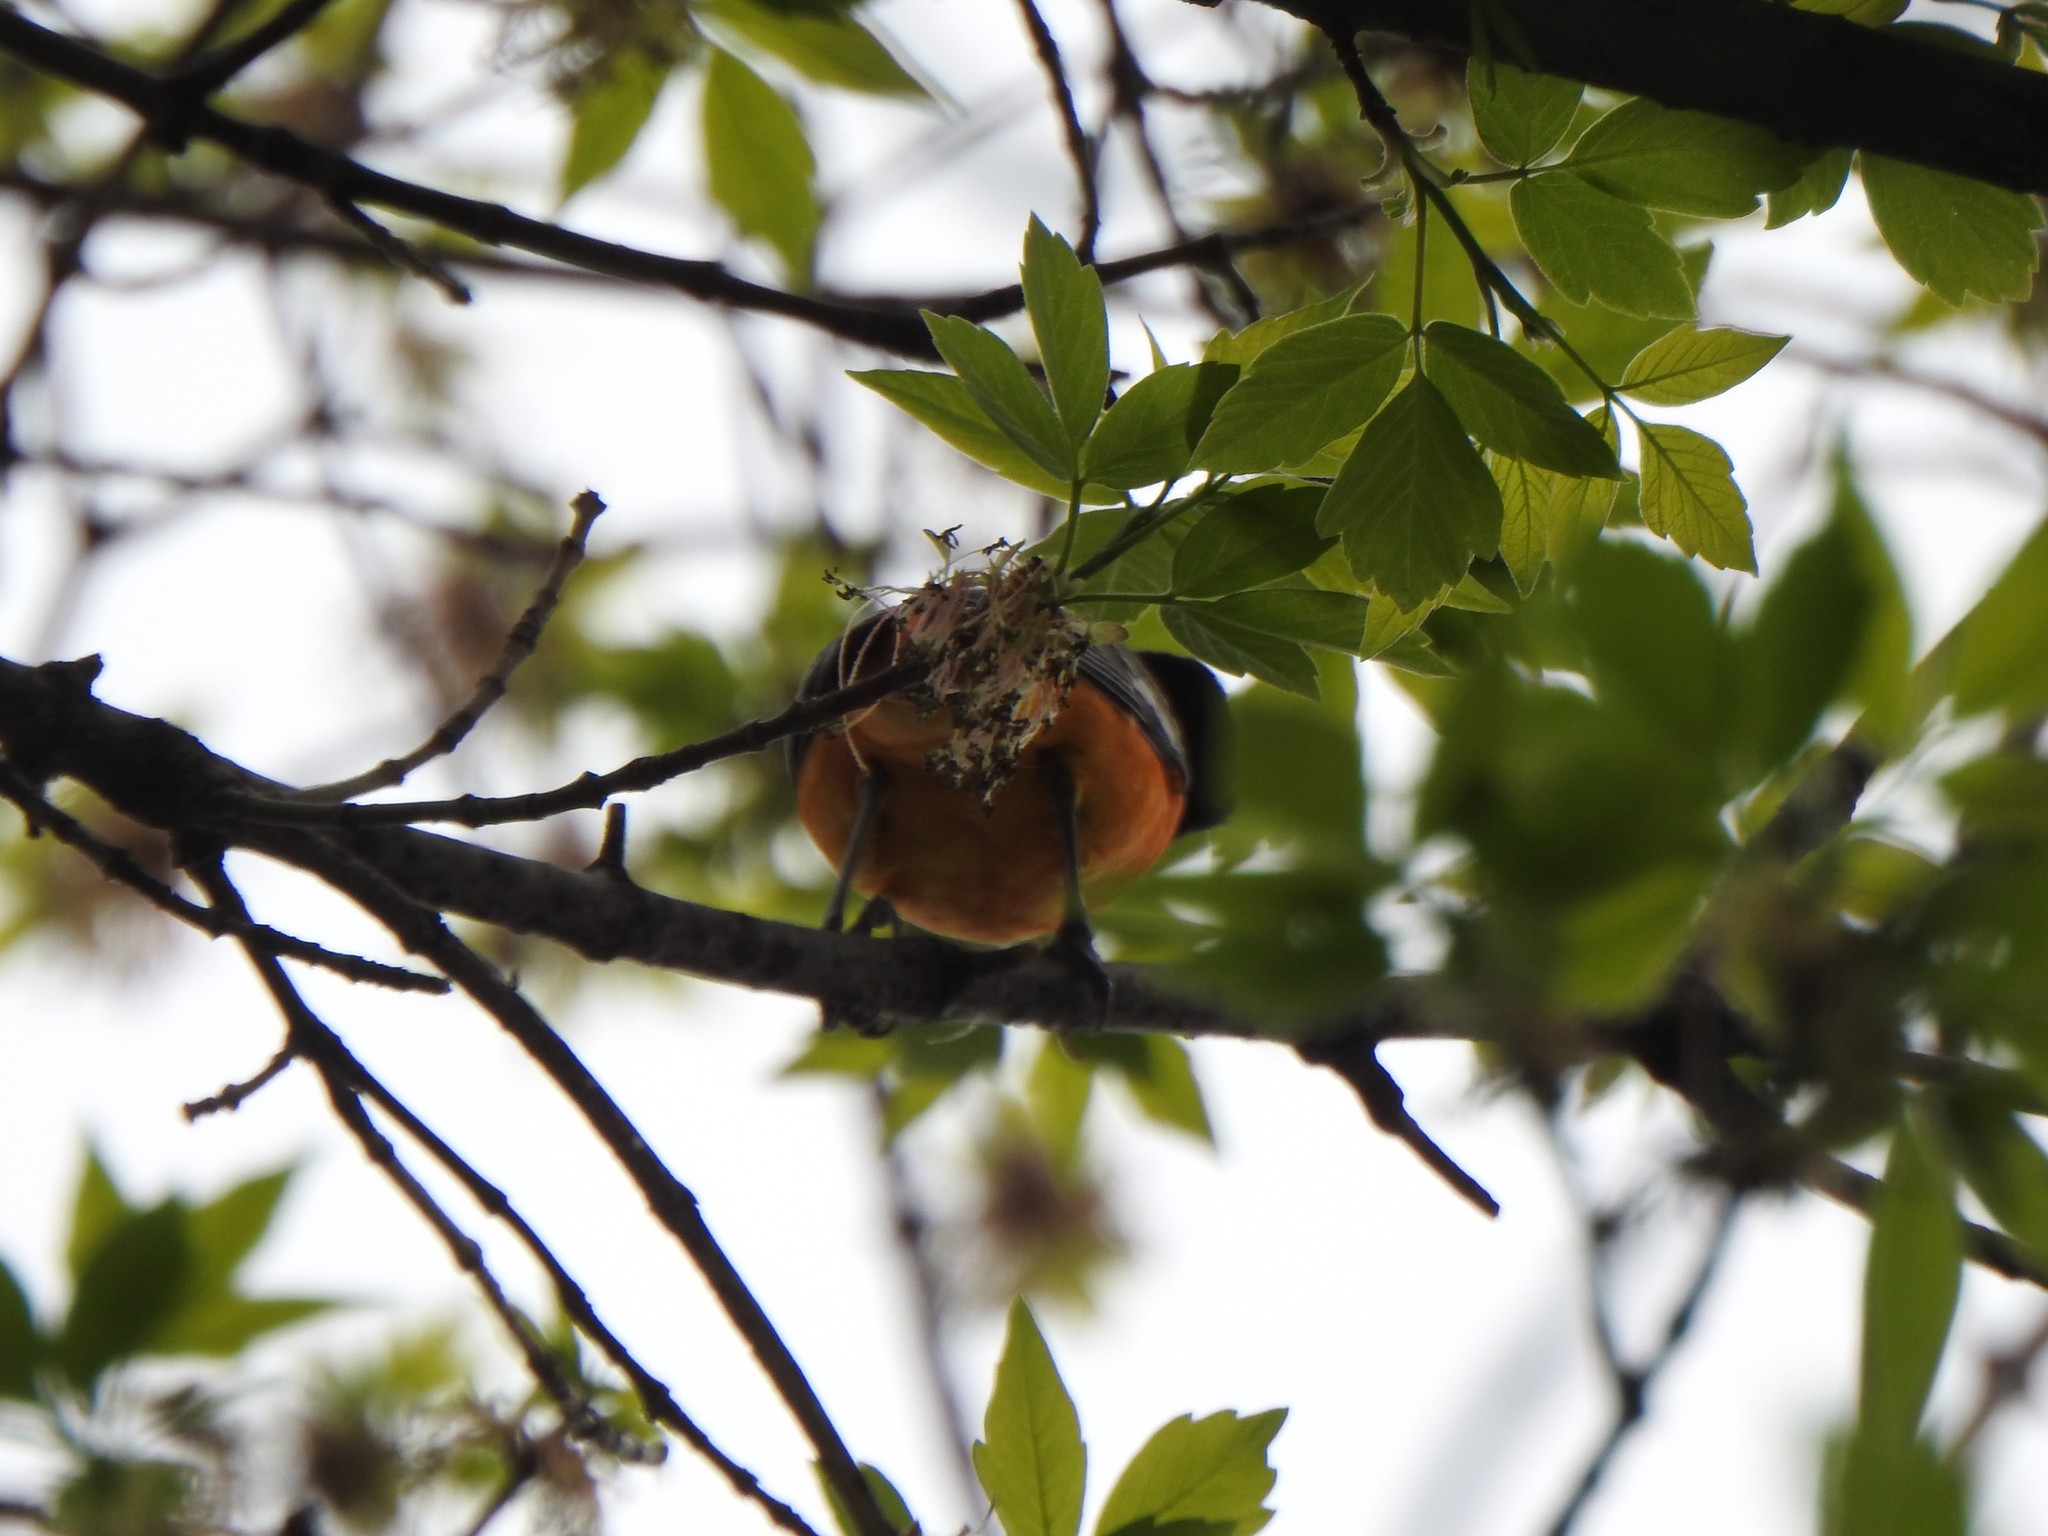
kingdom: Animalia
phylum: Chordata
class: Aves
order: Passeriformes
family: Icteridae
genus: Icterus
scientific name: Icterus galbula
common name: Baltimore oriole
